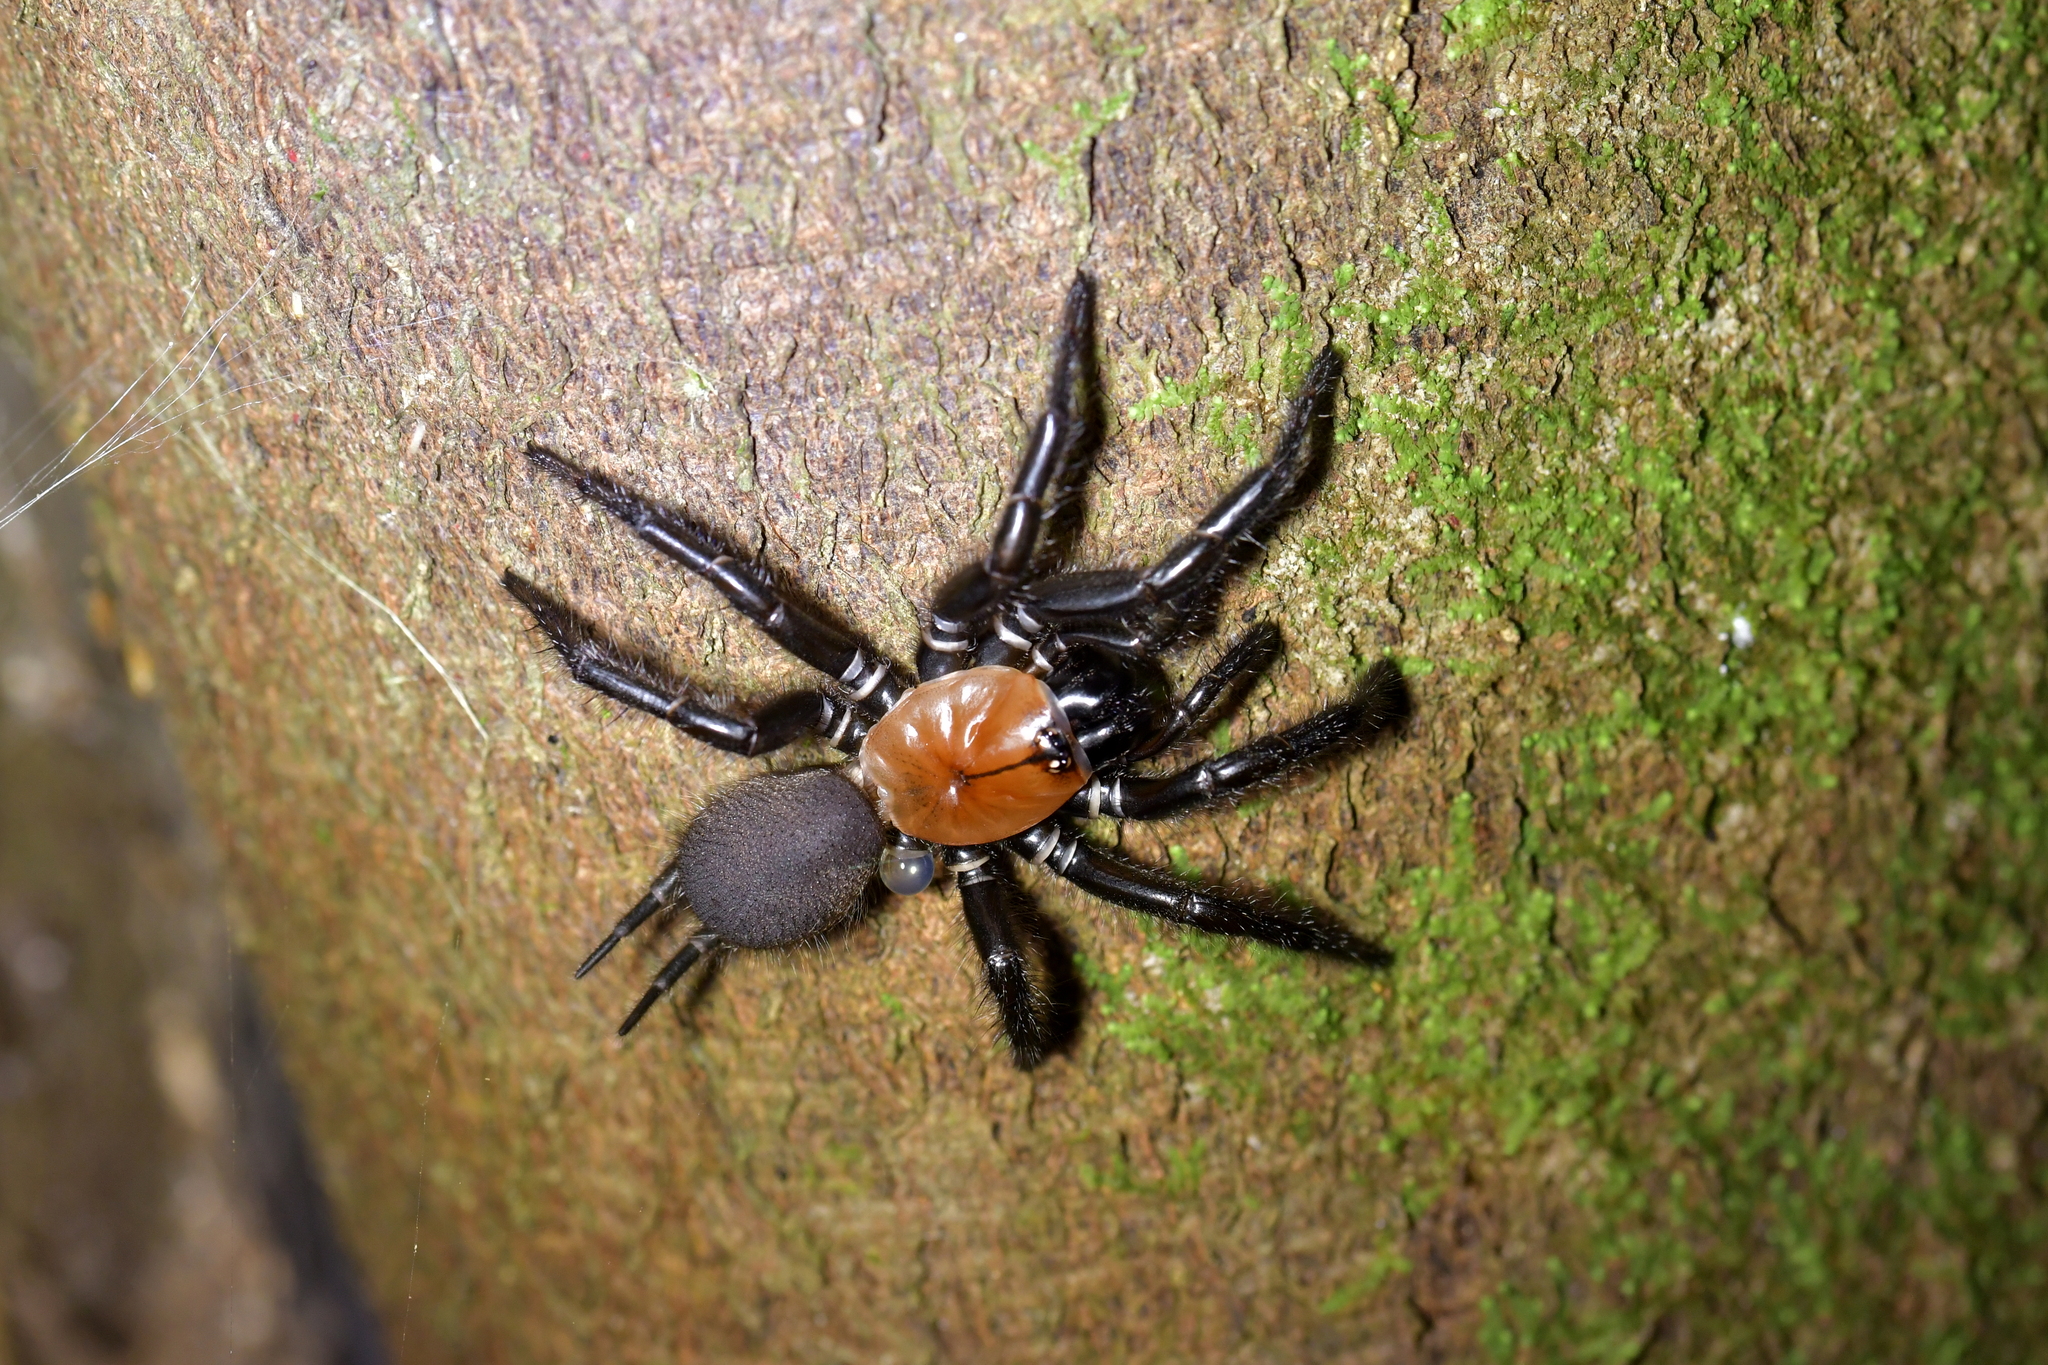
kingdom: Animalia
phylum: Arthropoda
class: Arachnida
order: Araneae
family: Porrhothelidae
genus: Porrhothele
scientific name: Porrhothele antipodiana
